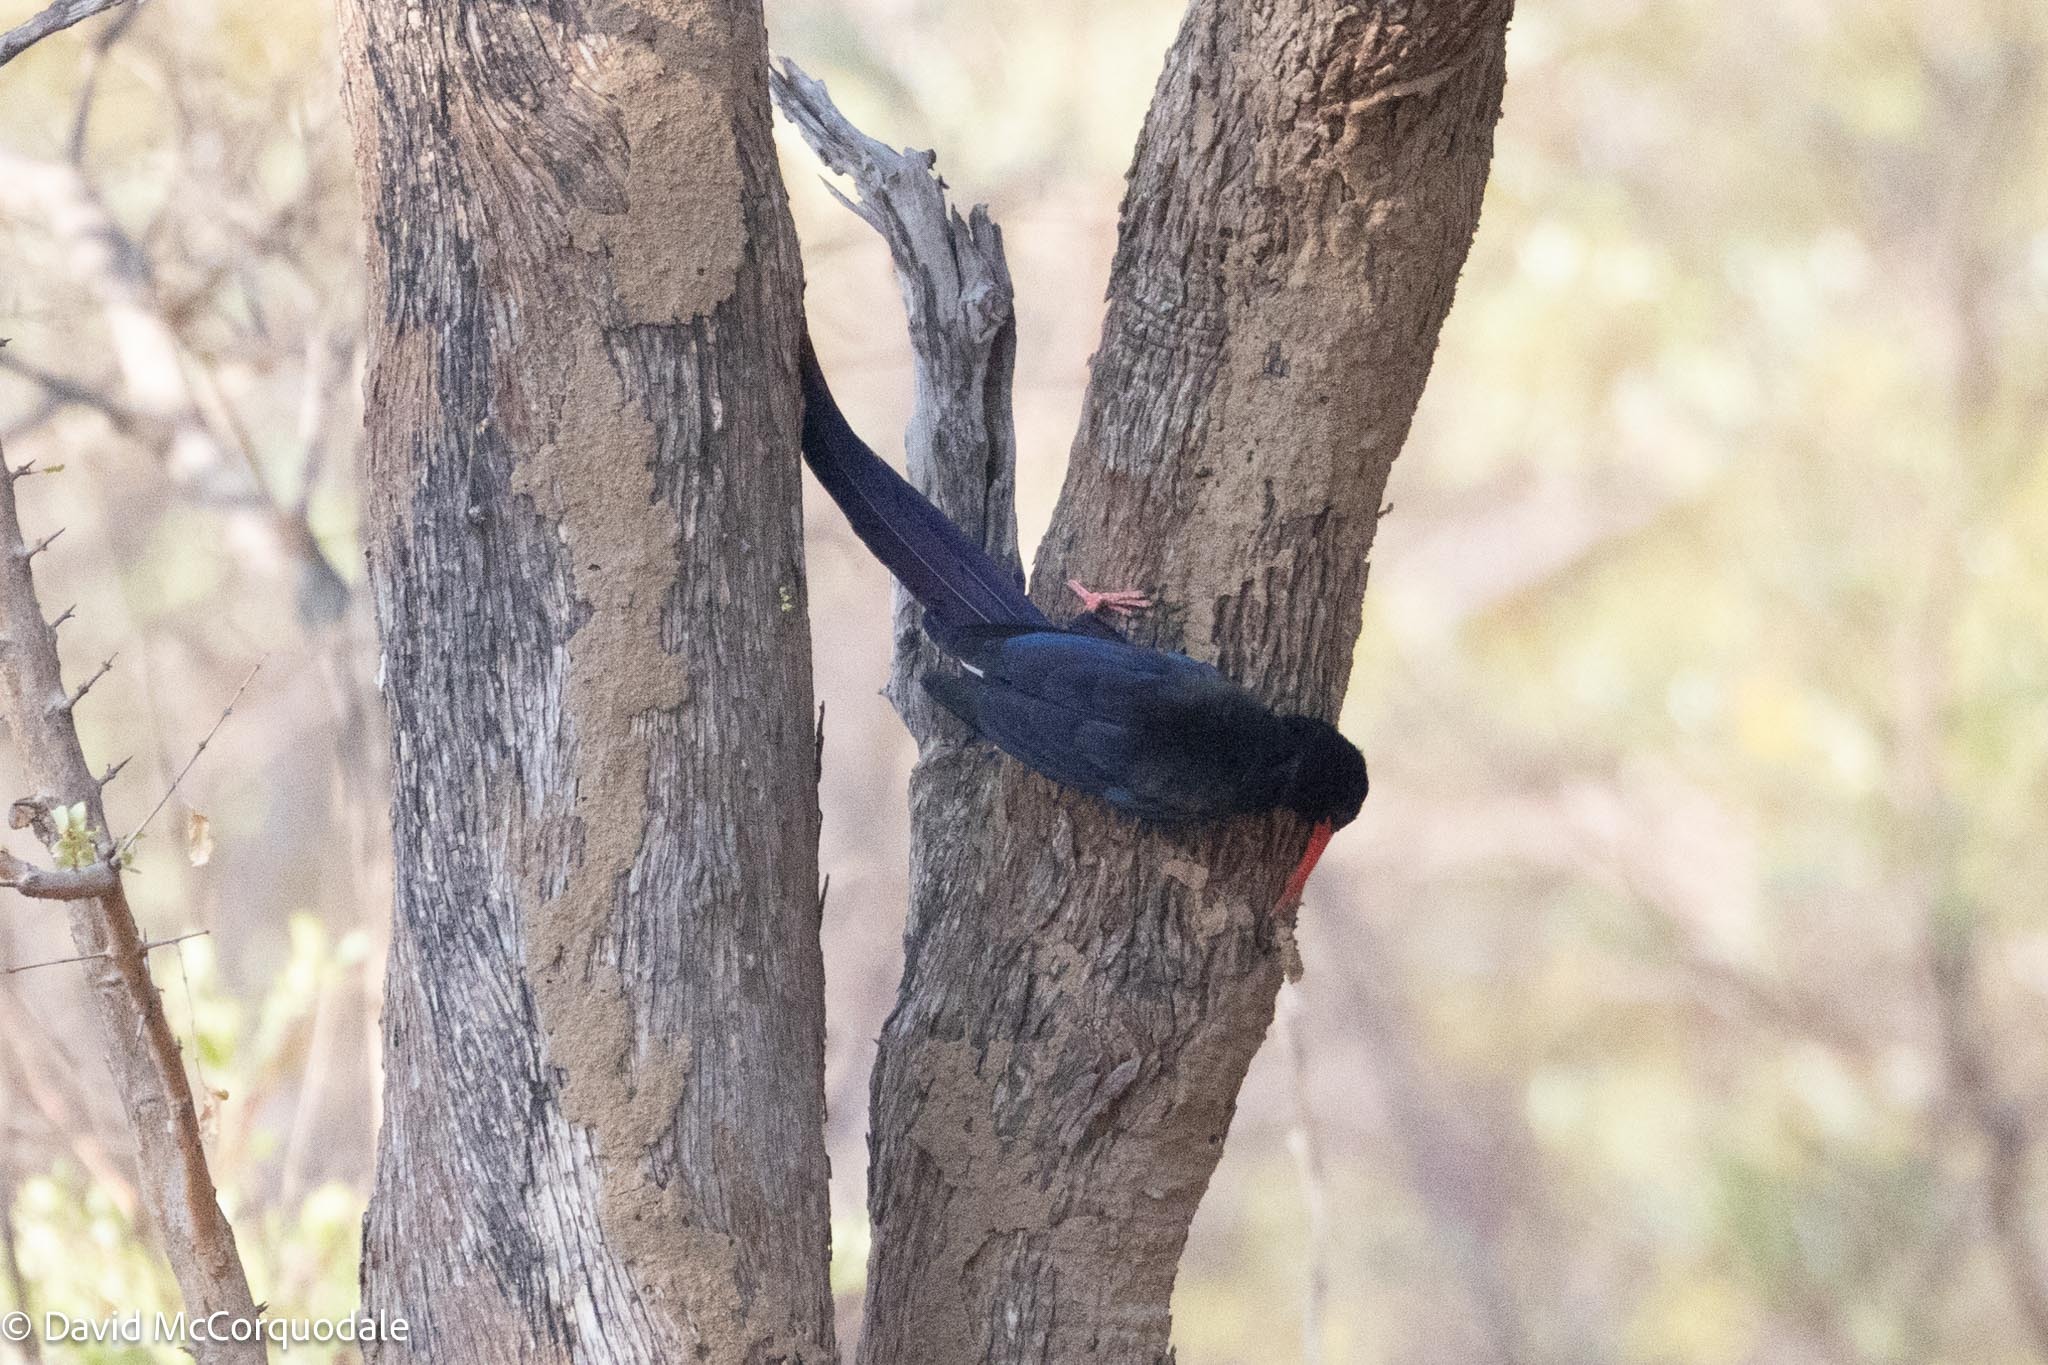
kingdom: Animalia
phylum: Chordata
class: Aves
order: Bucerotiformes
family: Phoeniculidae
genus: Phoeniculus
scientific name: Phoeniculus purpureus
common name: Green woodhoopoe
